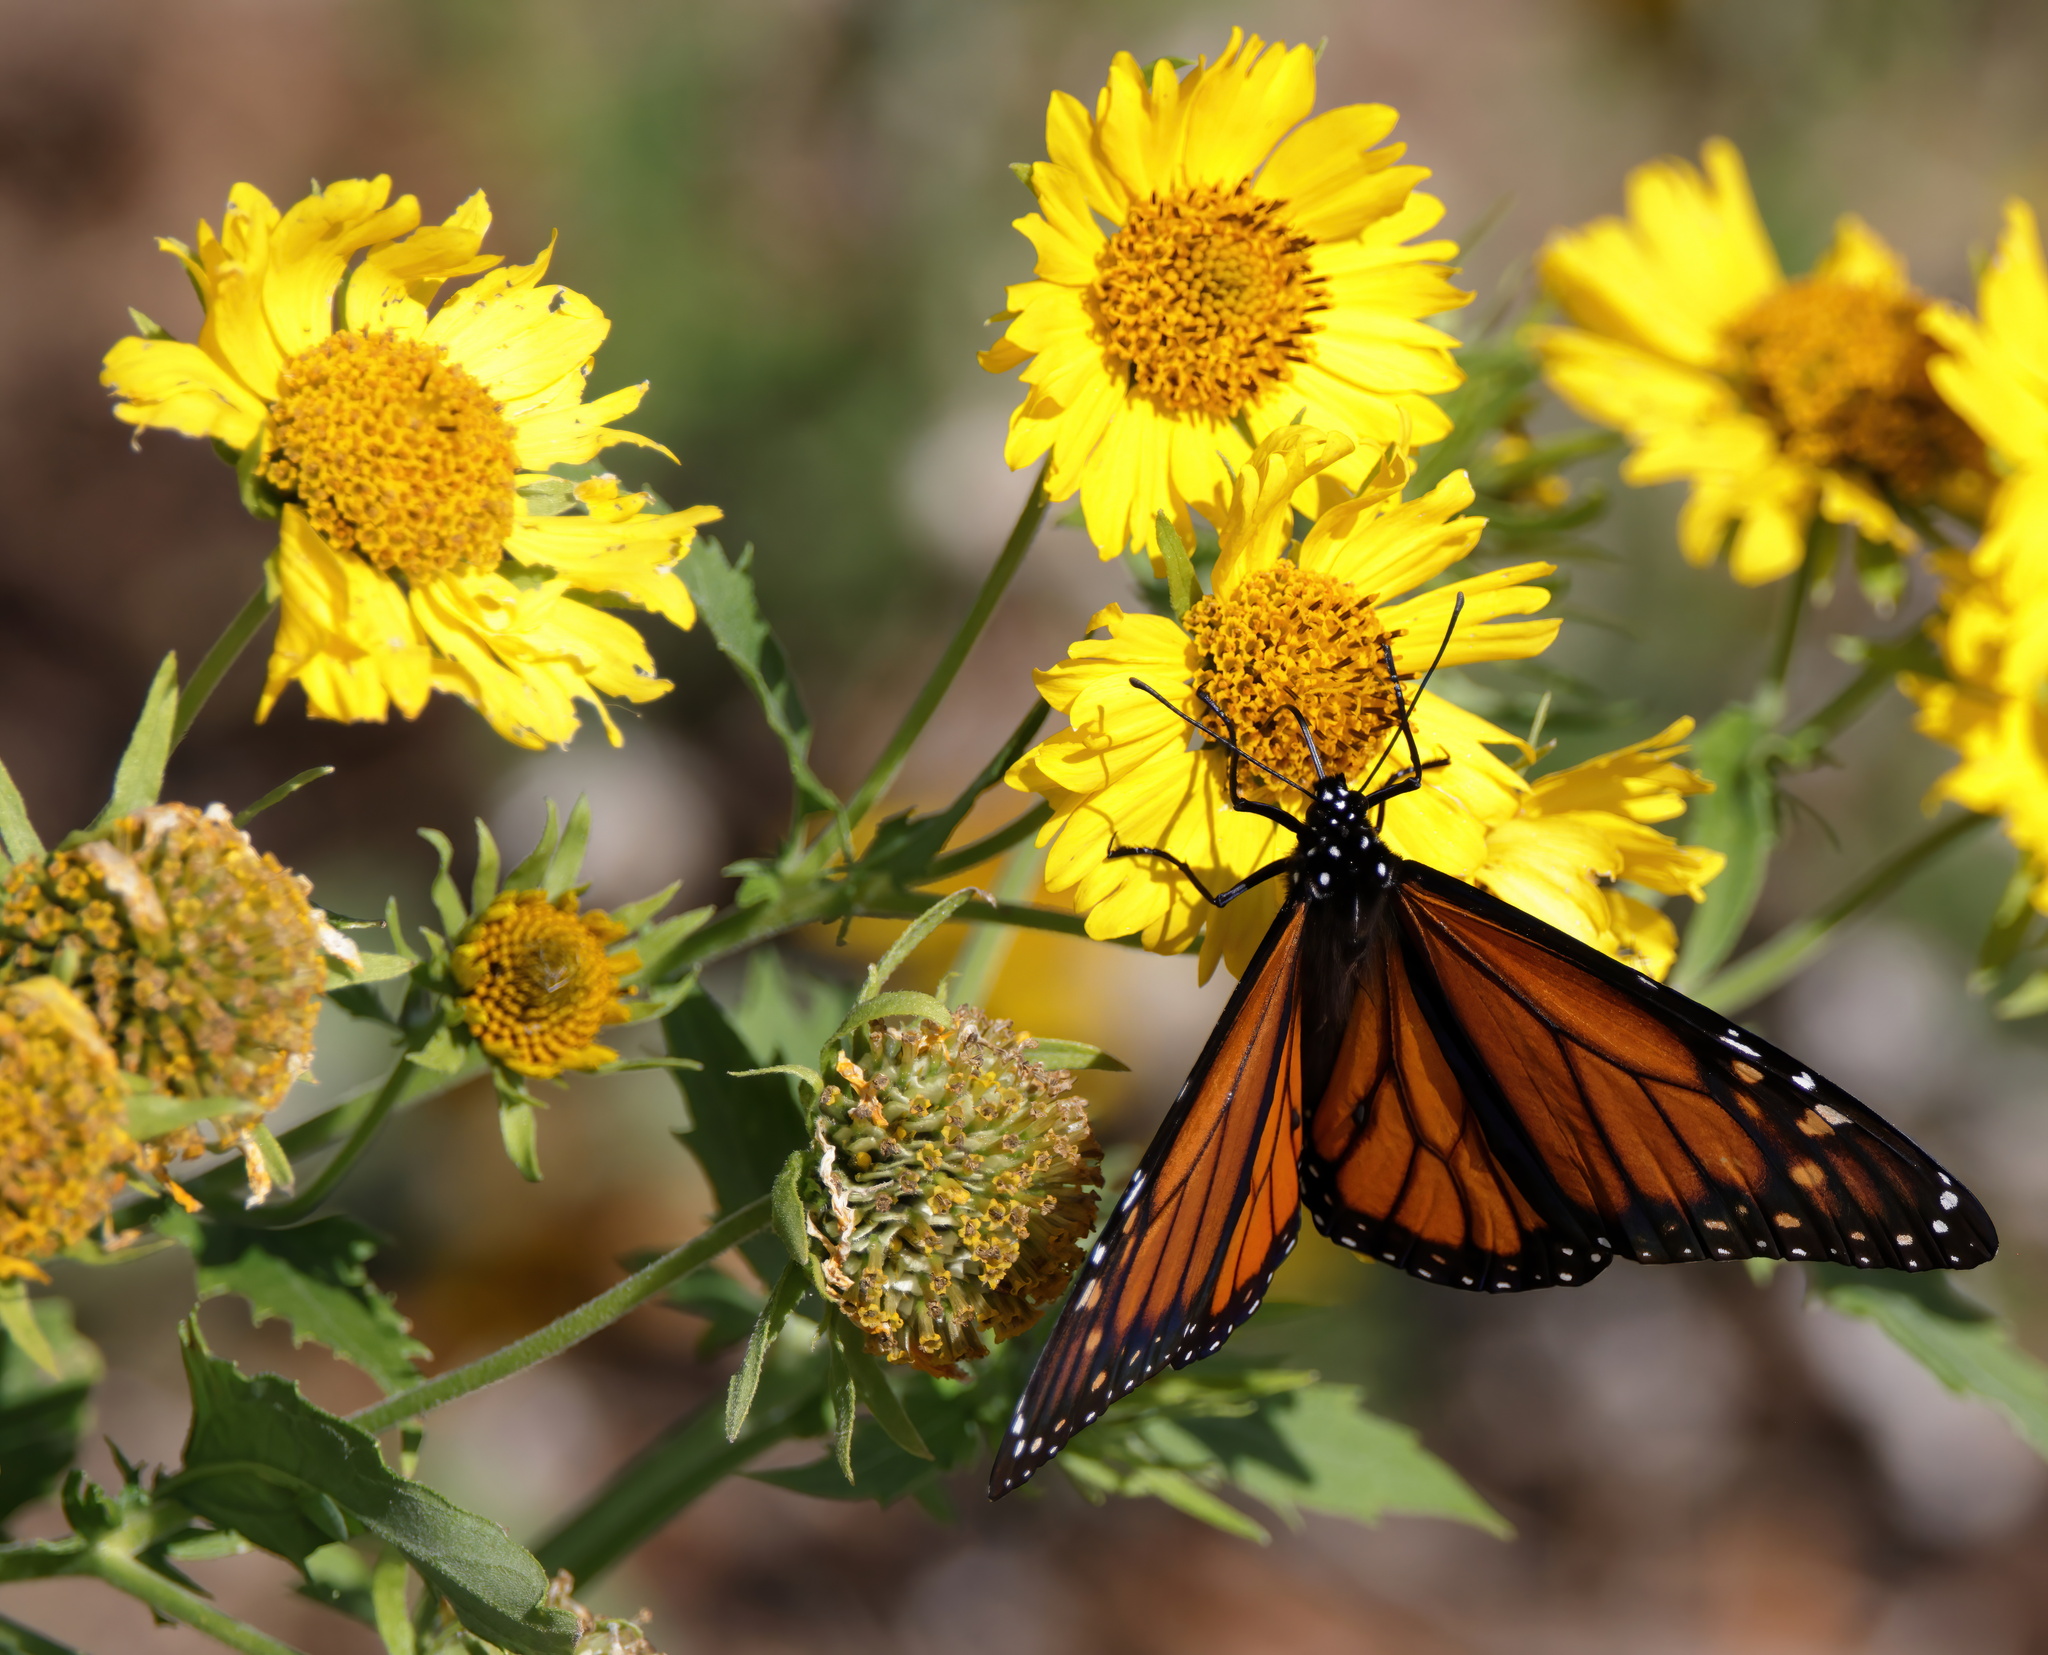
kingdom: Animalia
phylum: Arthropoda
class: Insecta
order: Lepidoptera
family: Nymphalidae
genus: Danaus
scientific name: Danaus plexippus
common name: Monarch
